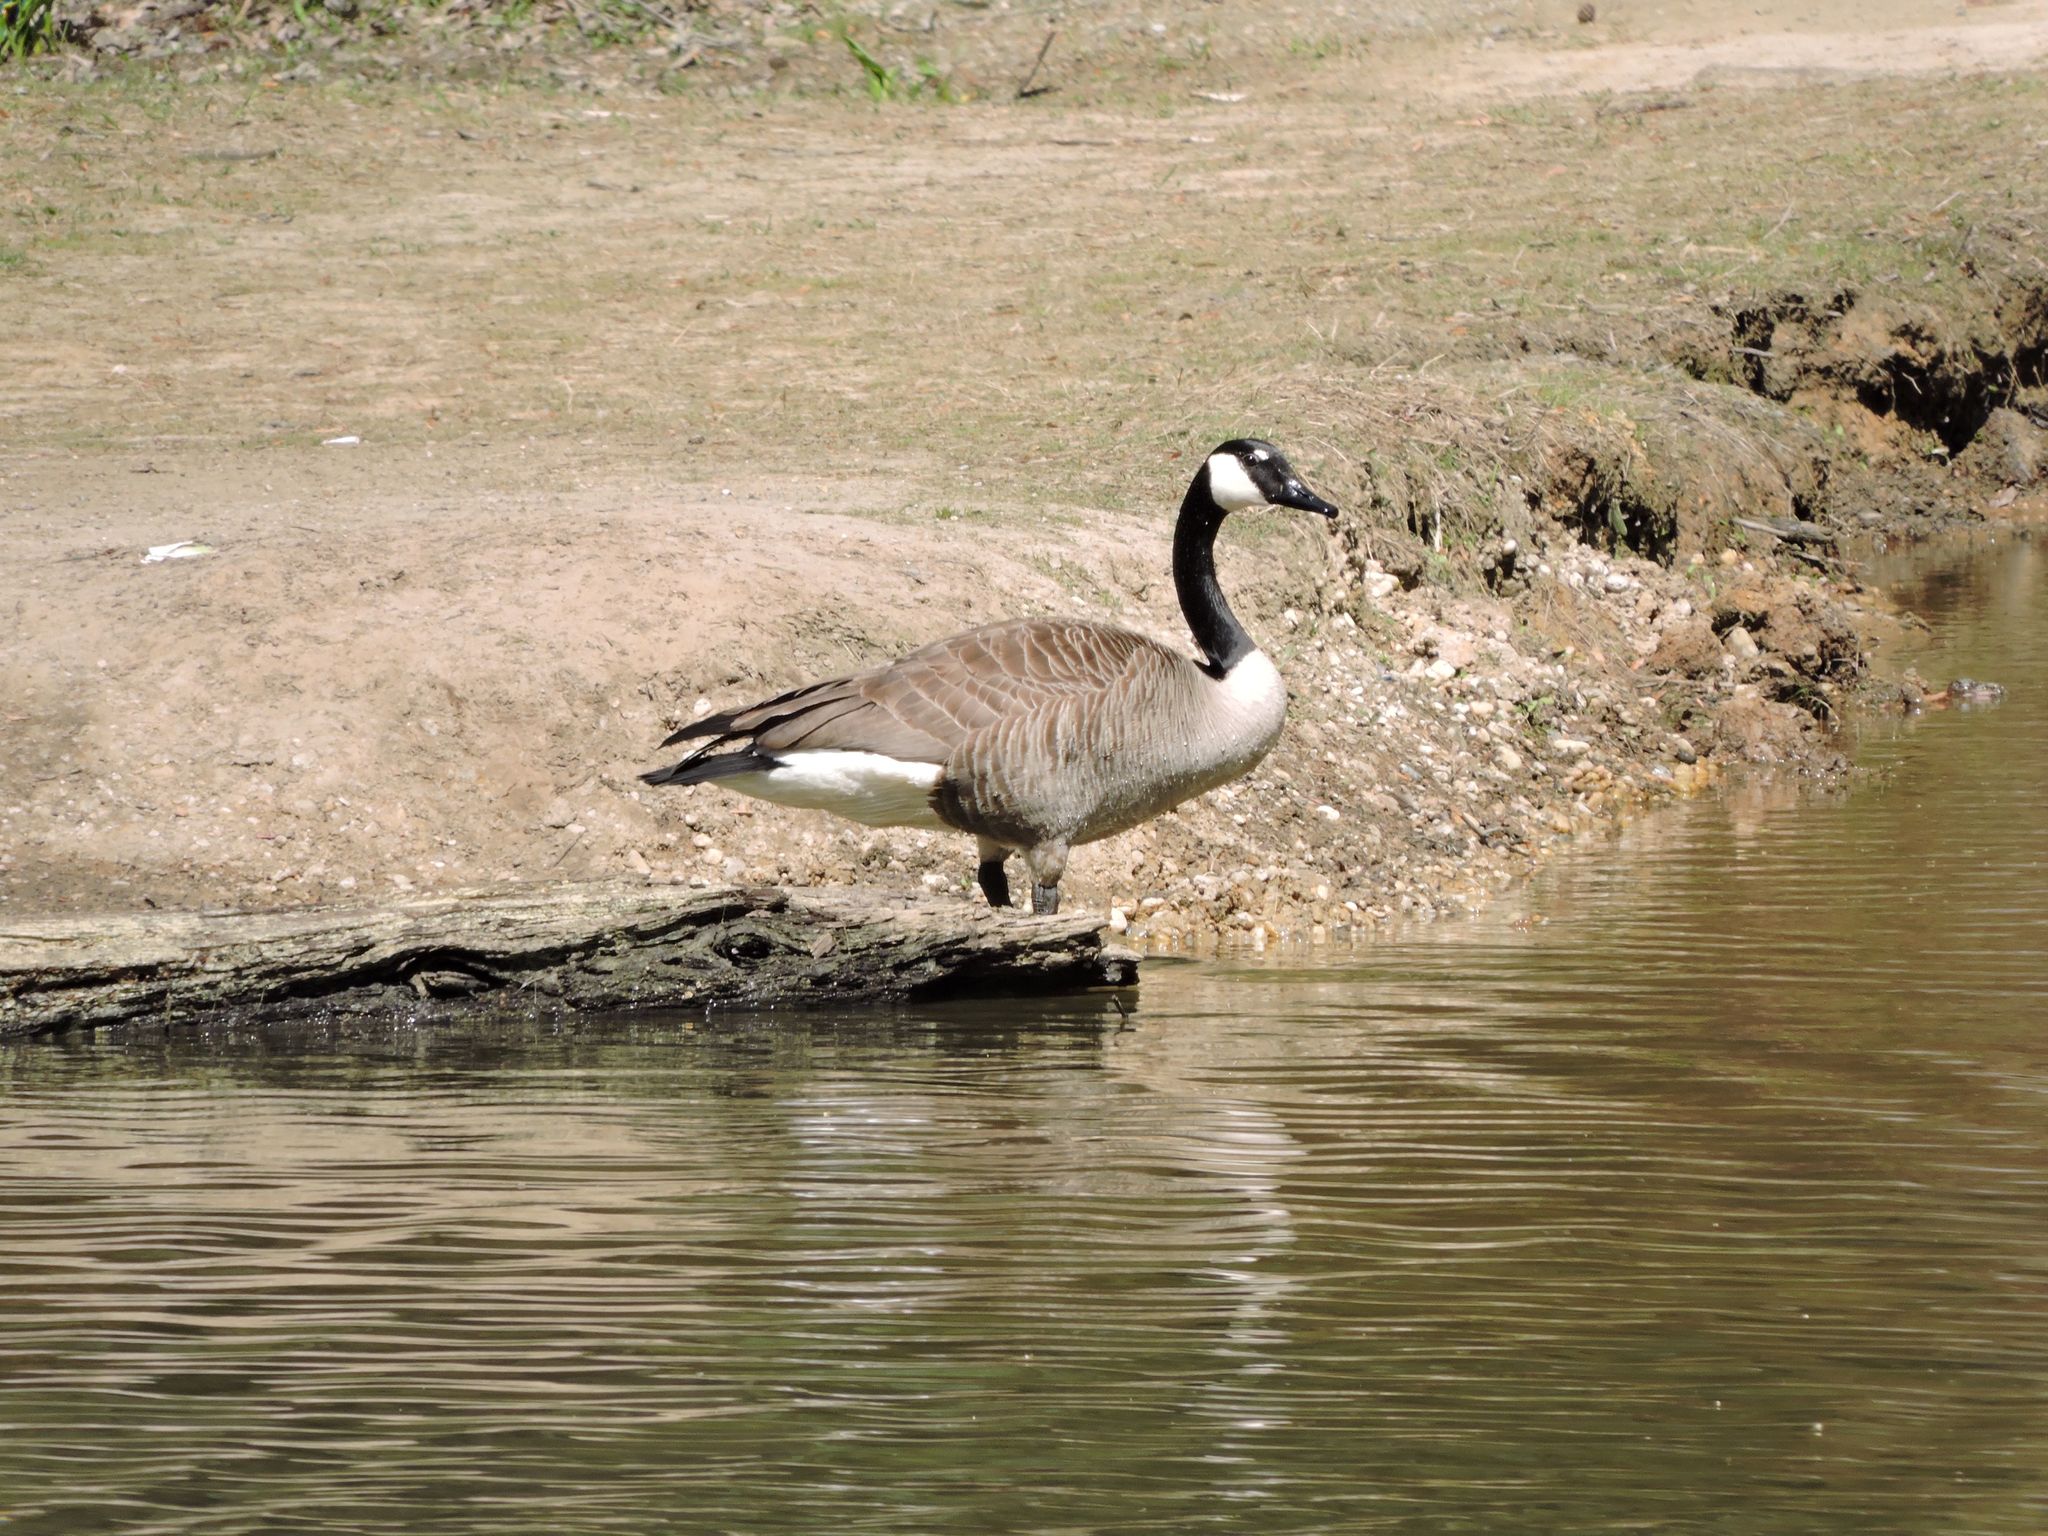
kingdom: Animalia
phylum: Chordata
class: Aves
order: Anseriformes
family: Anatidae
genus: Branta
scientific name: Branta canadensis
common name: Canada goose
